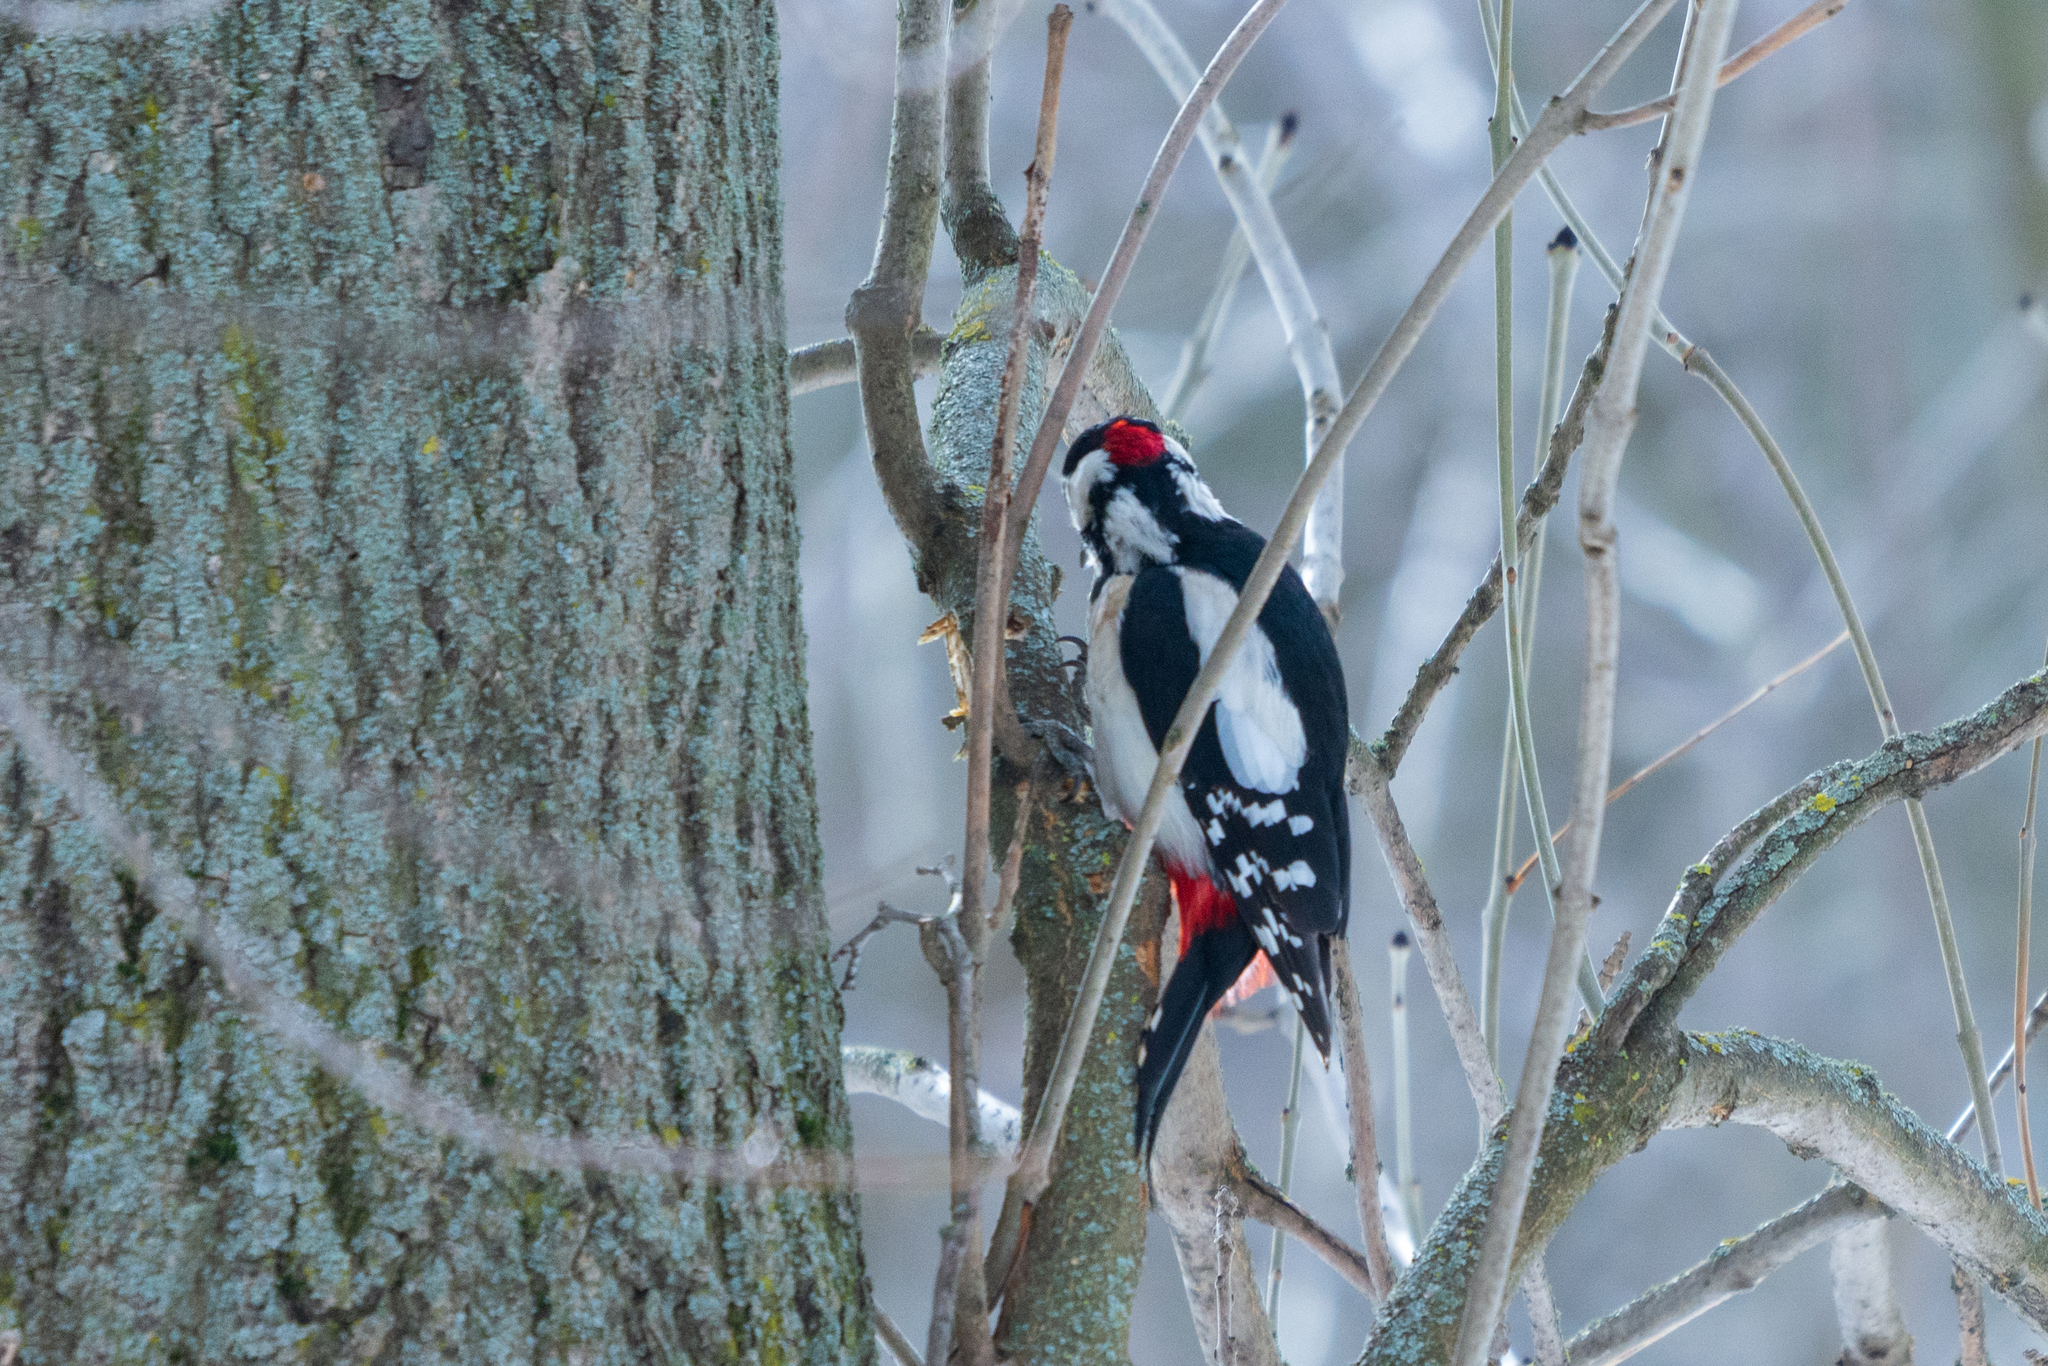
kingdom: Animalia
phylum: Chordata
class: Aves
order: Piciformes
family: Picidae
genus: Dendrocopos
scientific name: Dendrocopos major
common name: Great spotted woodpecker
